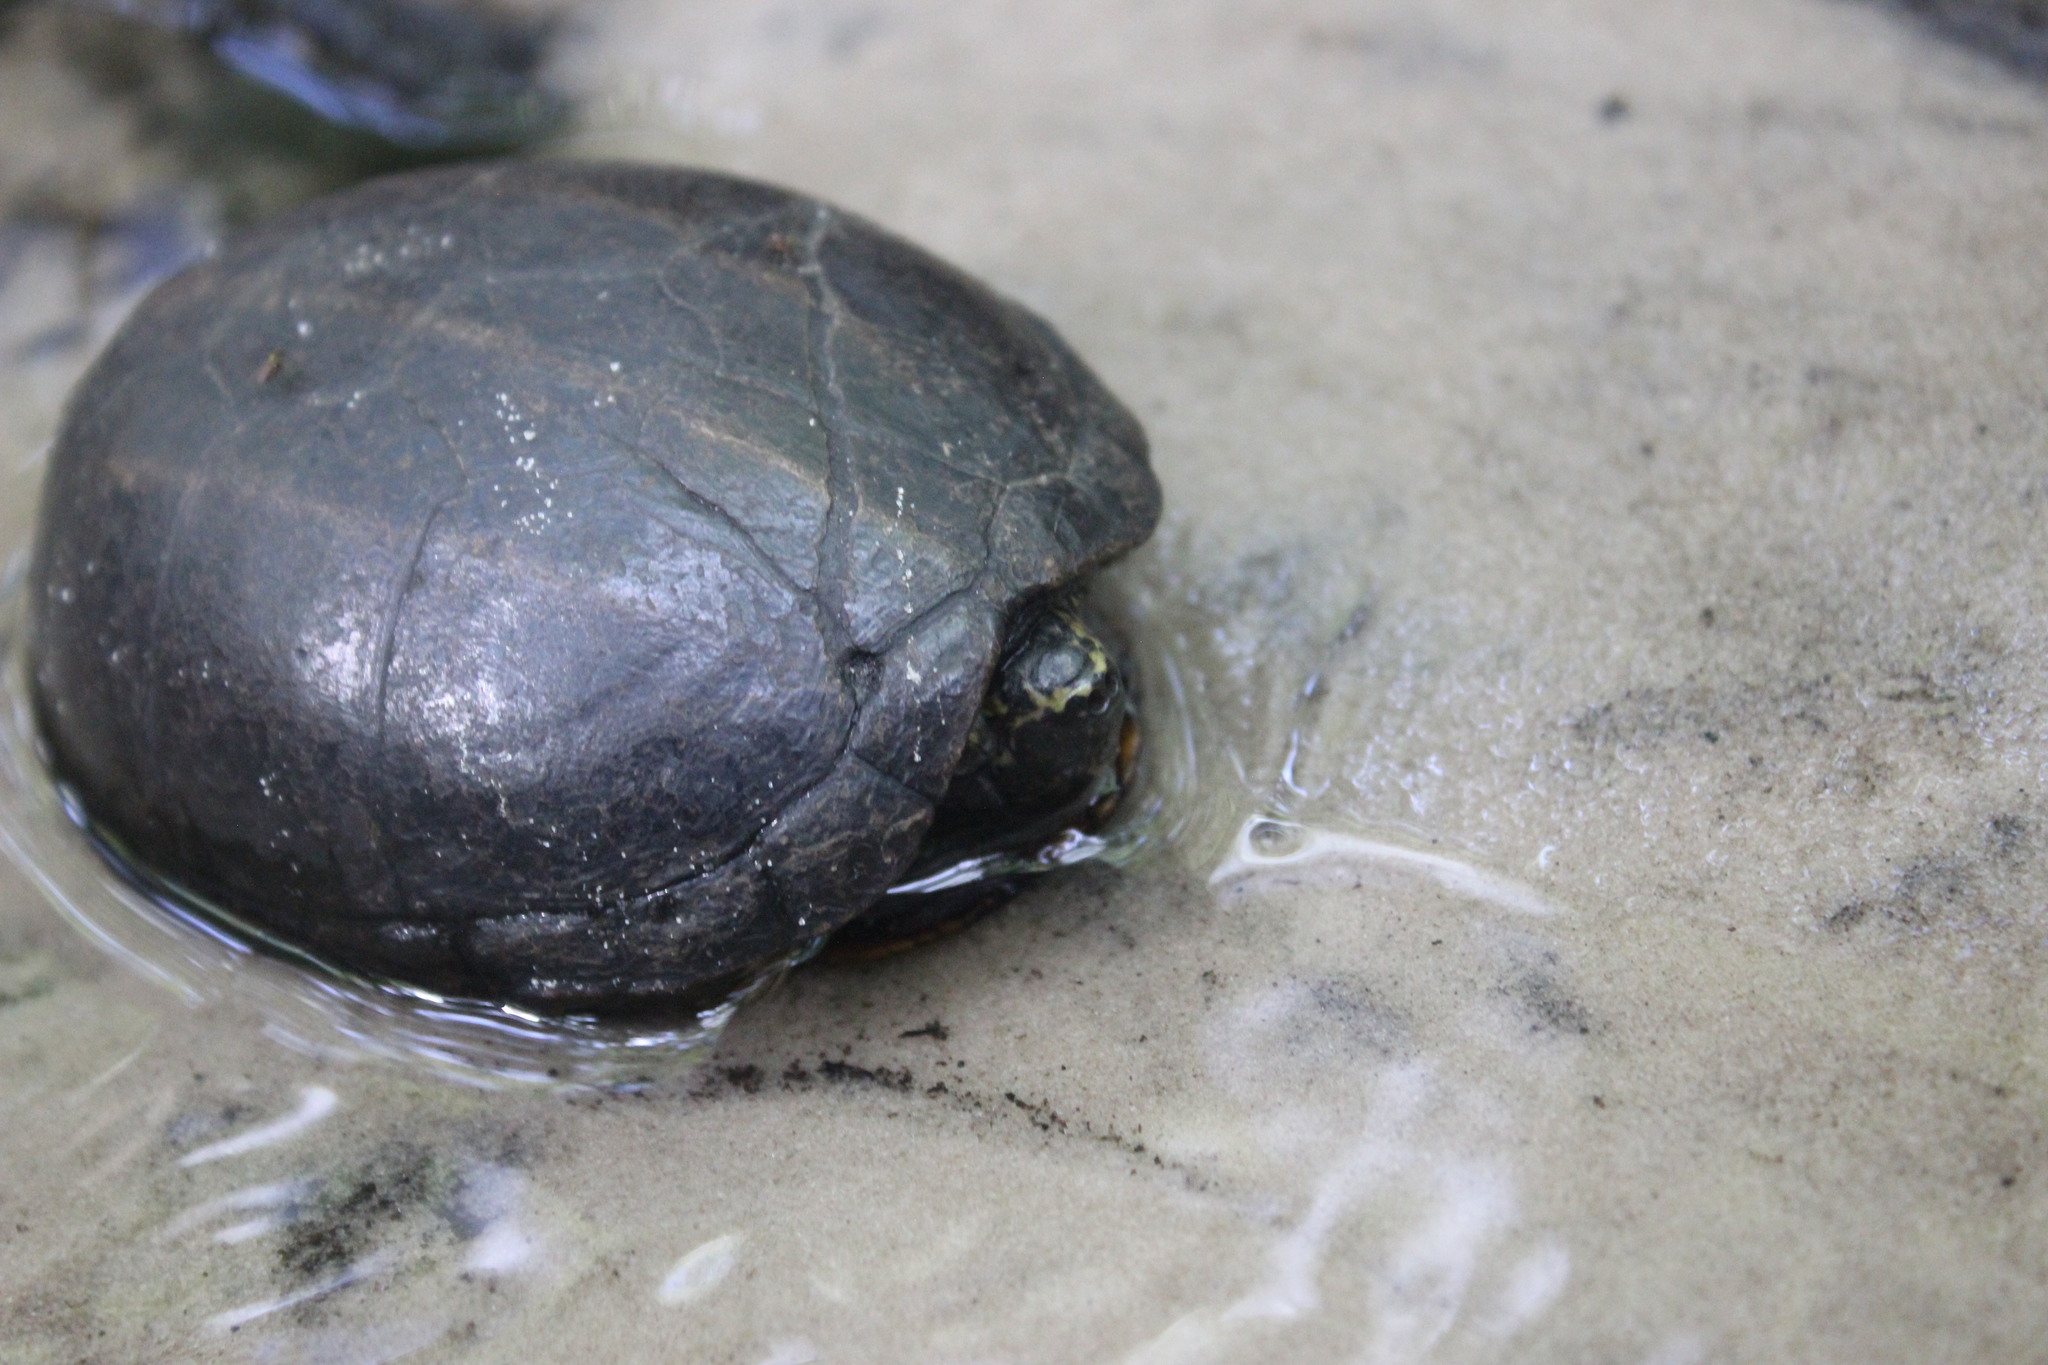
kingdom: Animalia
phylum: Chordata
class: Testudines
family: Kinosternidae
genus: Kinosternon
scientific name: Kinosternon baurii
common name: Striped mud turtle
